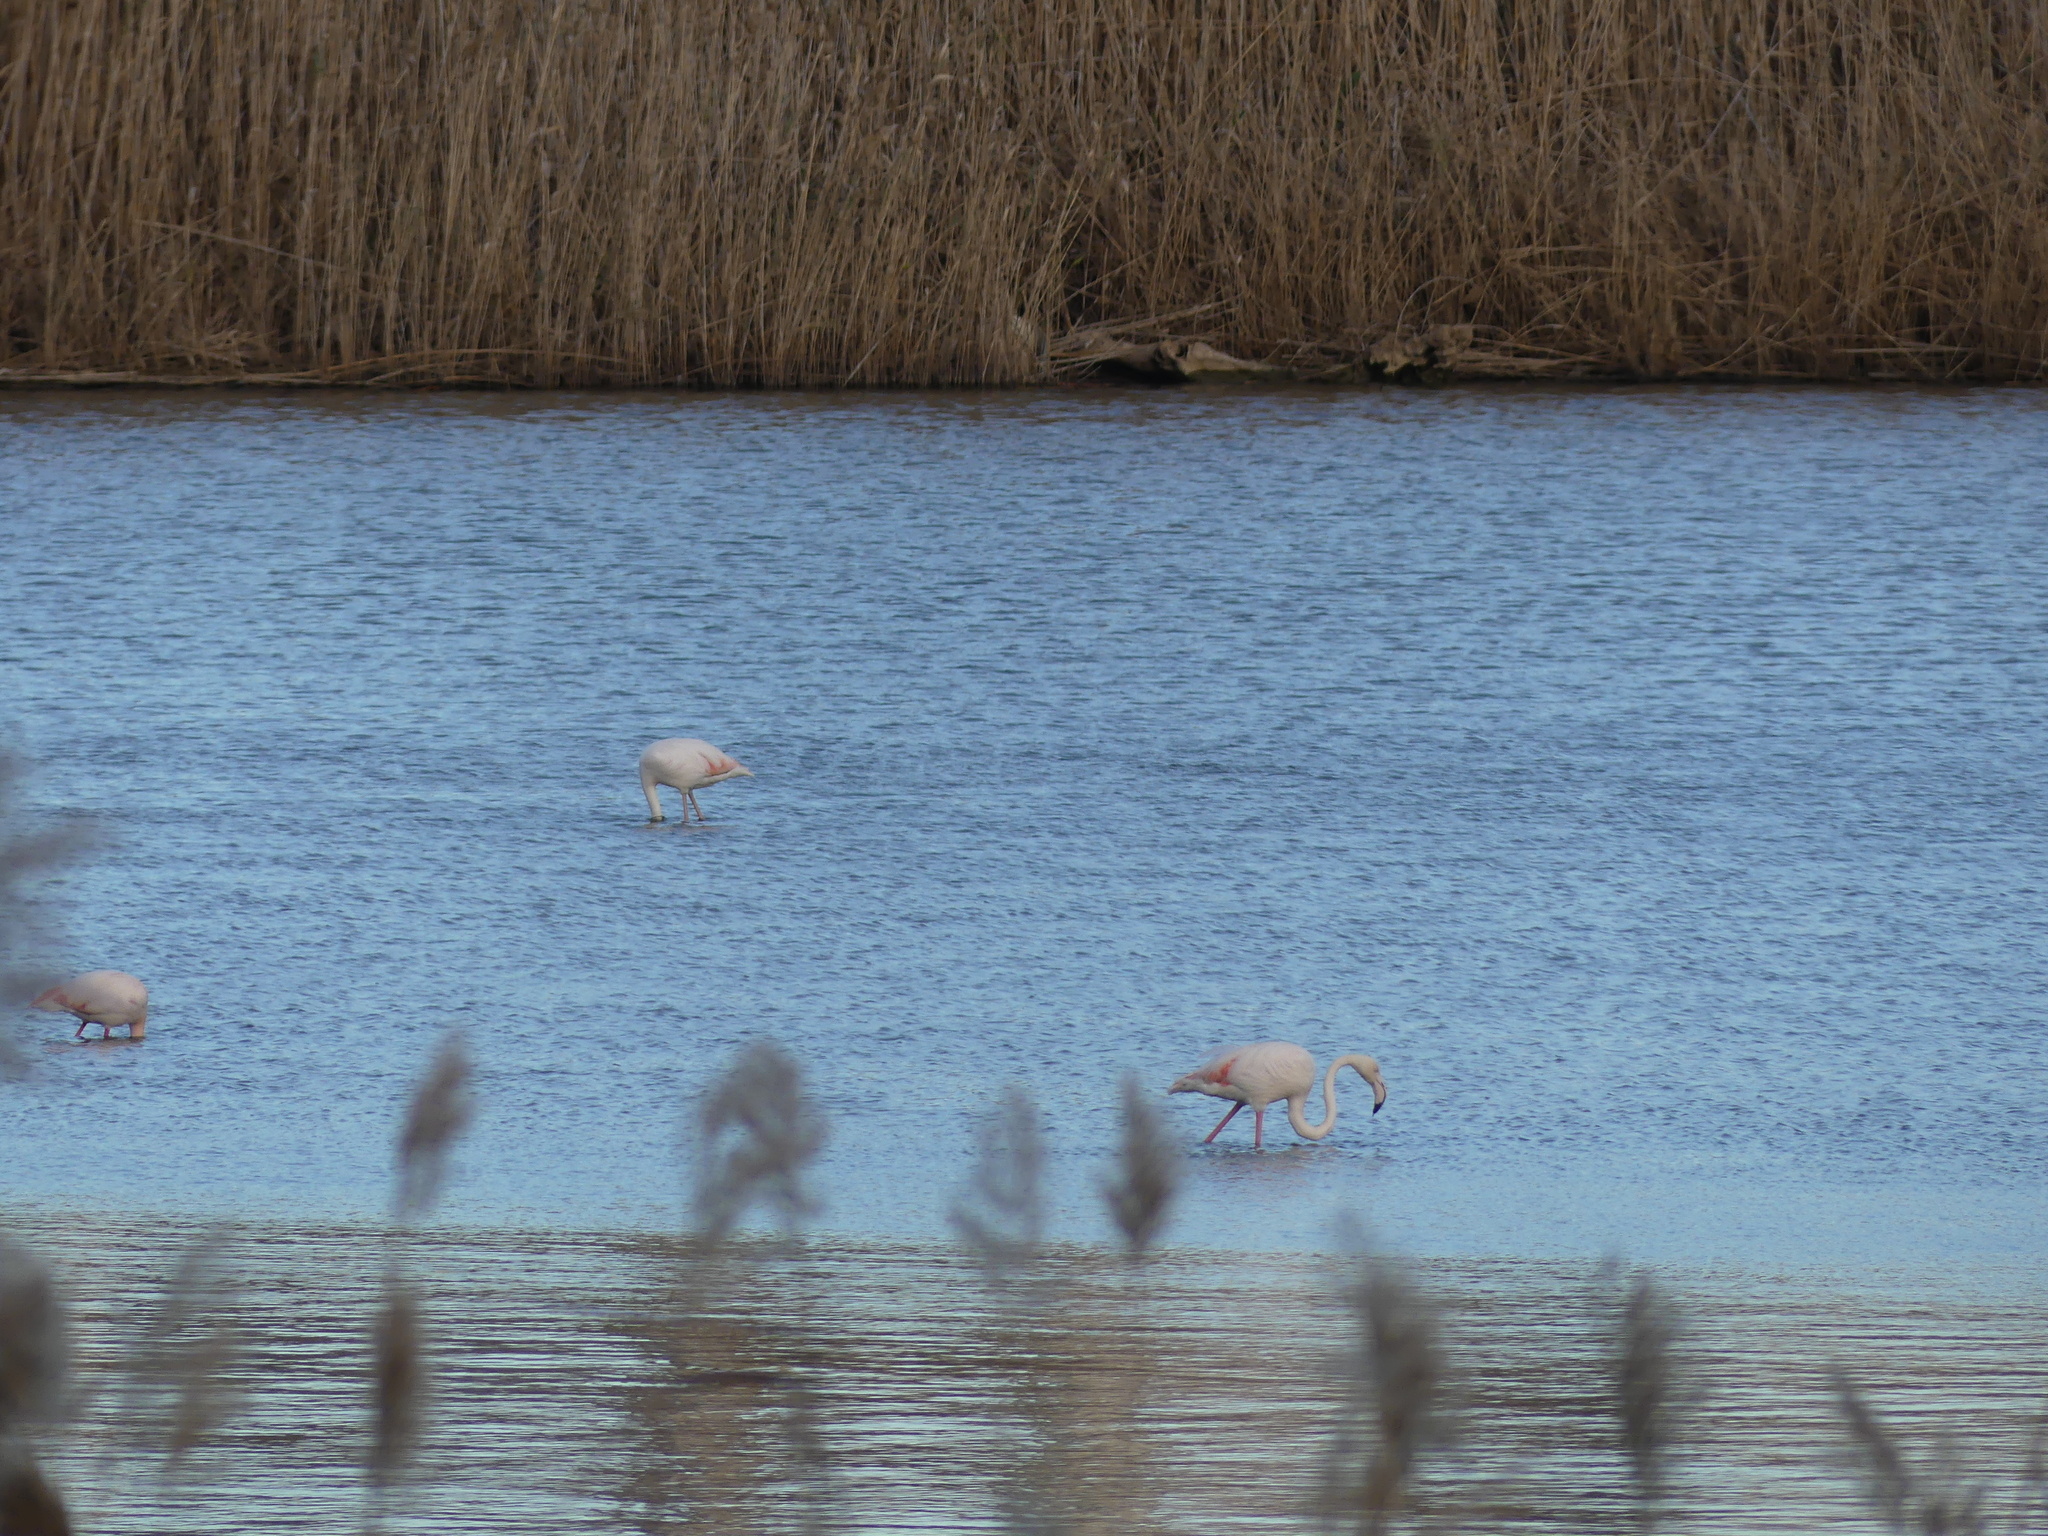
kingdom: Animalia
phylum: Chordata
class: Aves
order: Phoenicopteriformes
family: Phoenicopteridae
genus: Phoenicopterus
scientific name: Phoenicopterus roseus
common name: Greater flamingo
